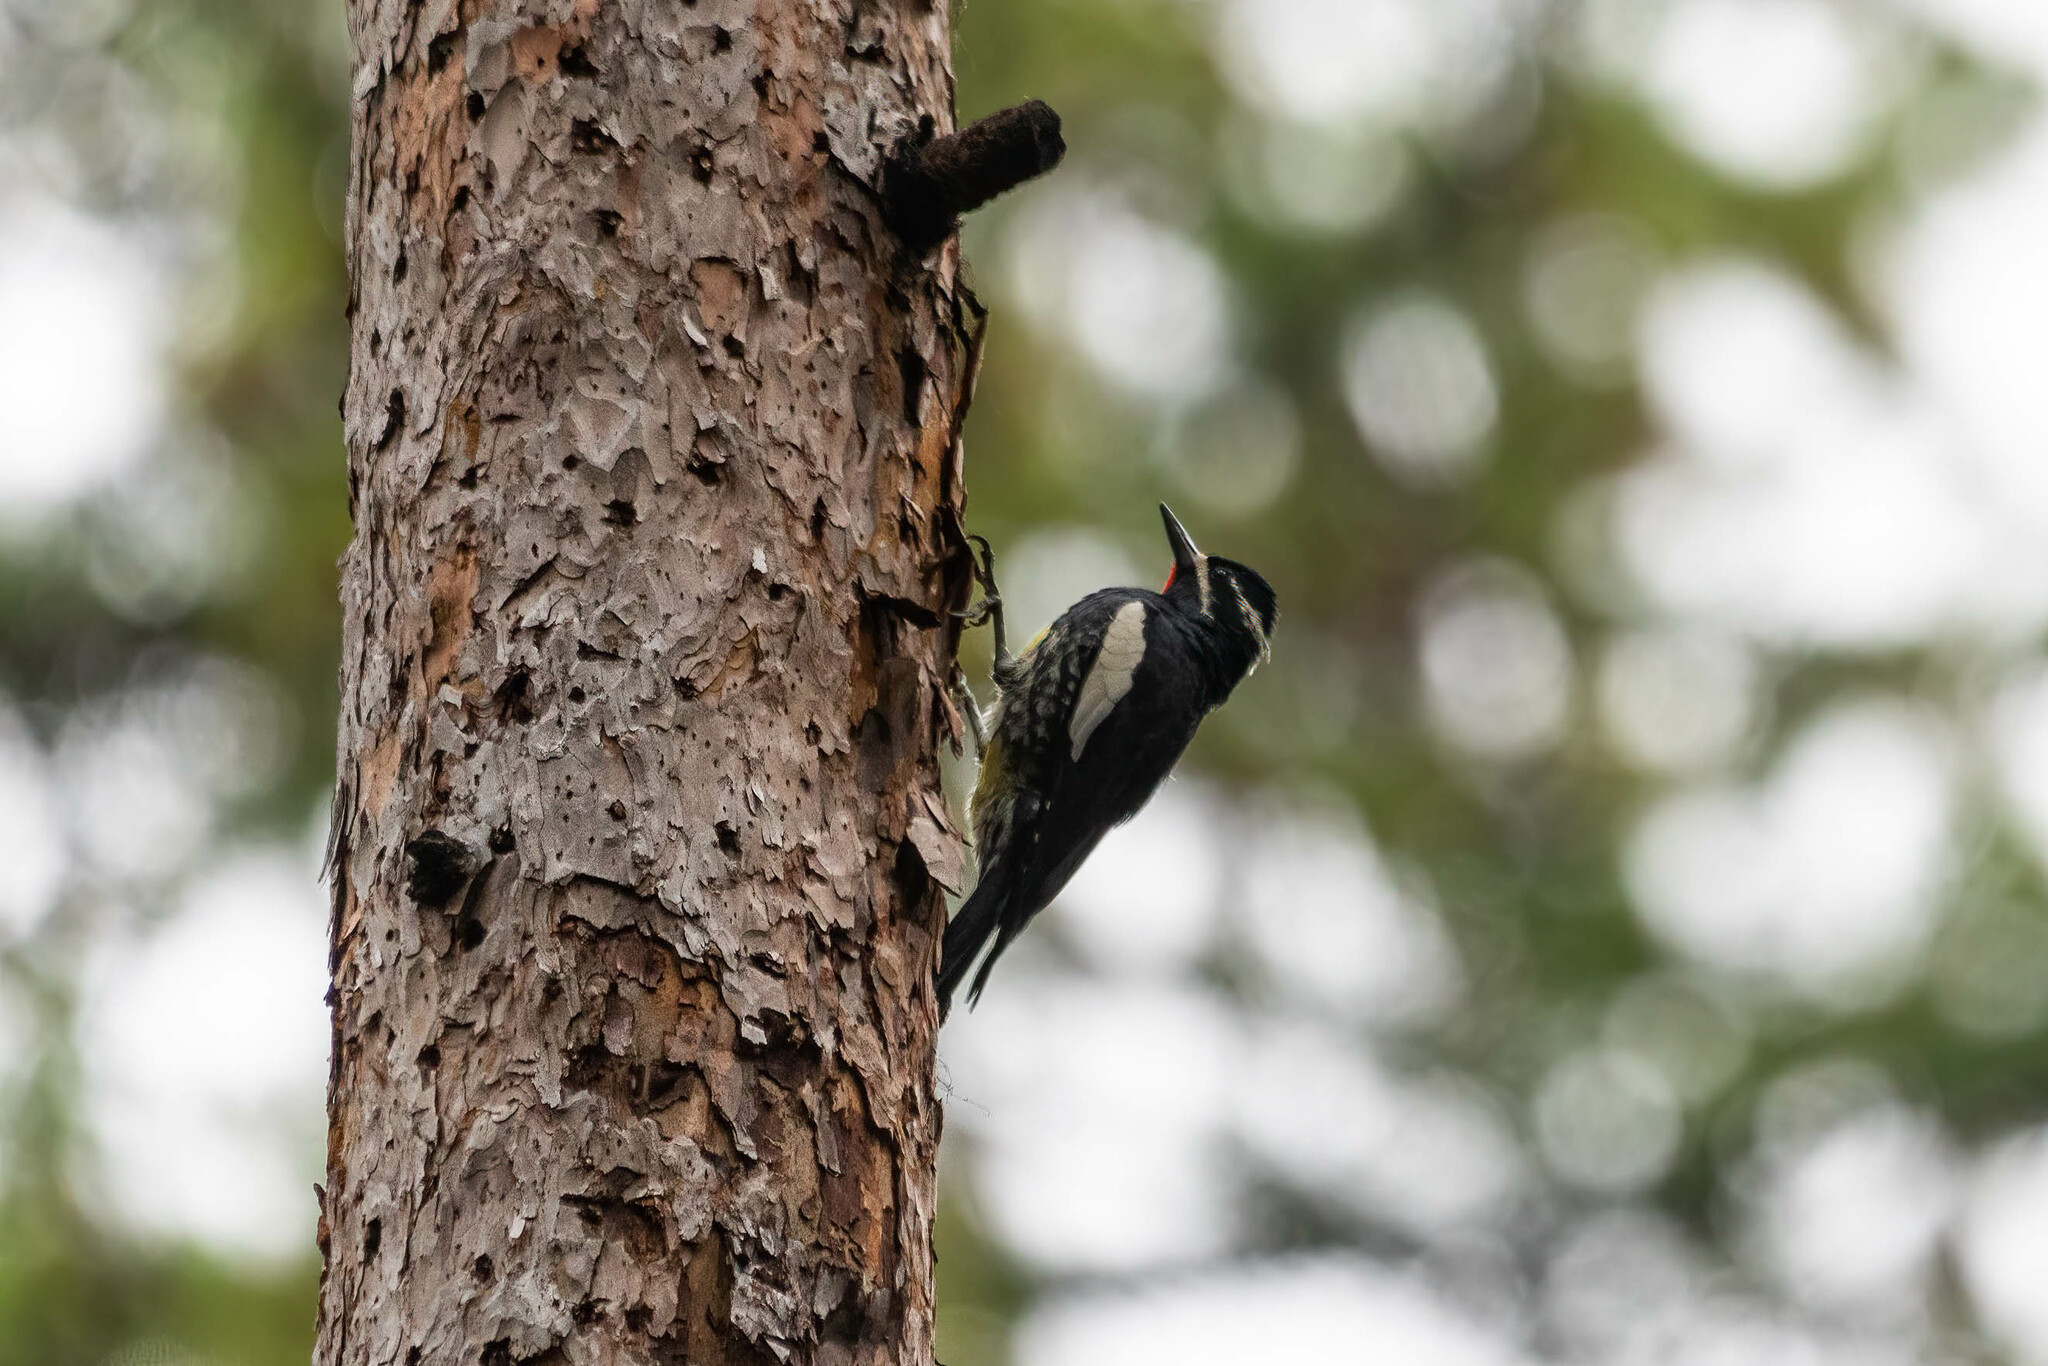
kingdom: Animalia
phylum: Chordata
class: Aves
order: Piciformes
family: Picidae
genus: Sphyrapicus
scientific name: Sphyrapicus thyroideus
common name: Williamson's sapsucker
